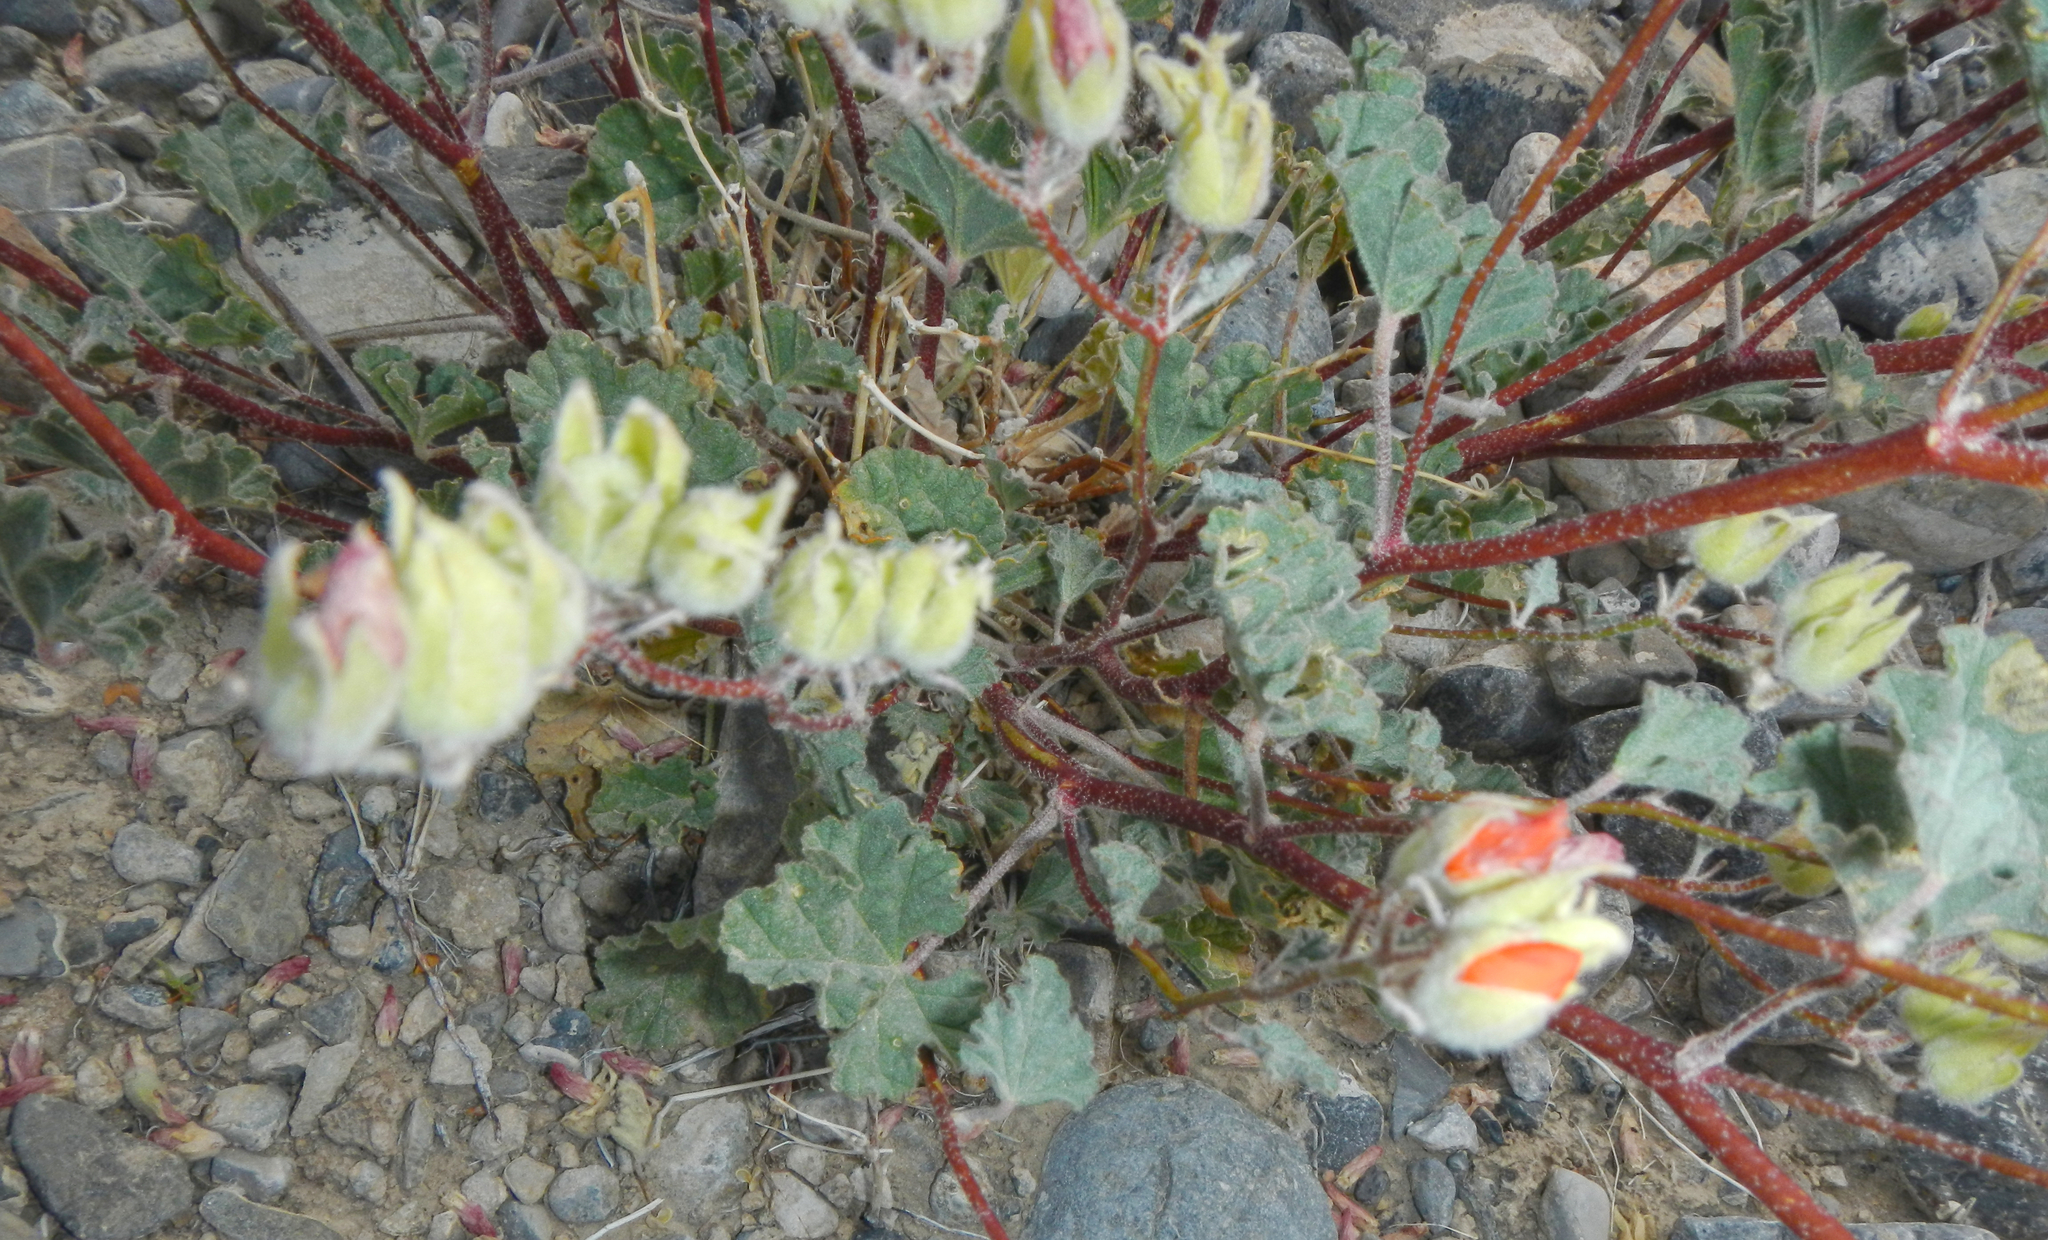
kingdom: Plantae
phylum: Tracheophyta
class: Magnoliopsida
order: Malvales
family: Malvaceae
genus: Sphaeralcea
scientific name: Sphaeralcea ambigua
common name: Apricot globe-mallow
